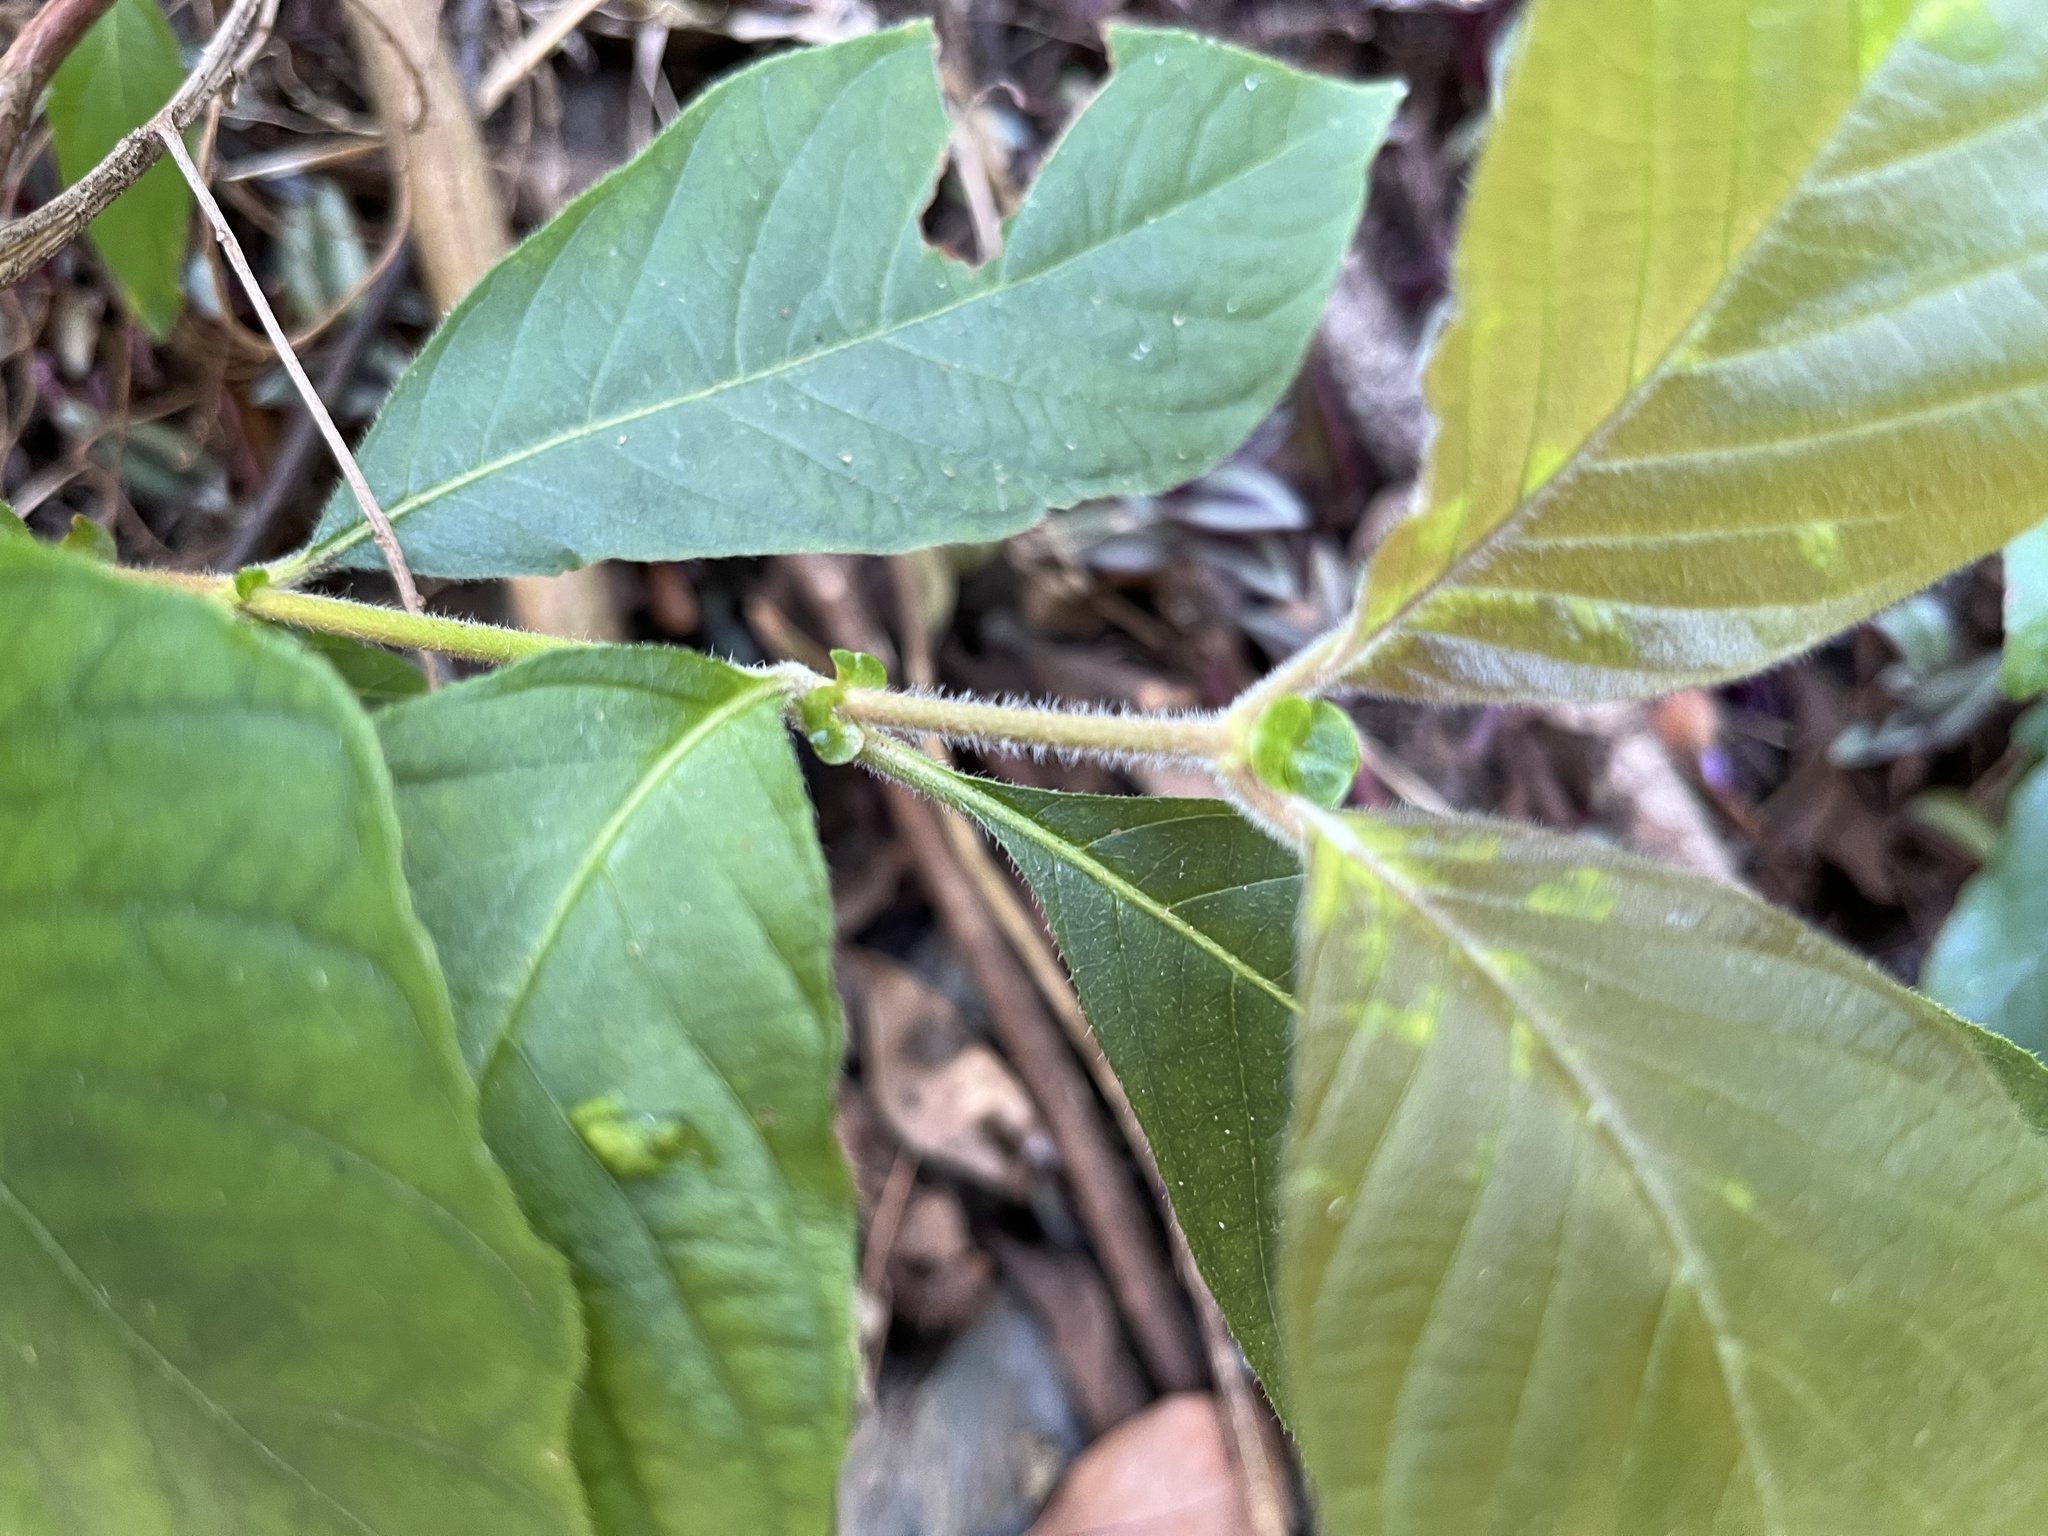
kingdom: Plantae
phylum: Tracheophyta
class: Magnoliopsida
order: Gentianales
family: Rubiaceae
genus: Wendlandia
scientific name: Wendlandia uvariifolia
